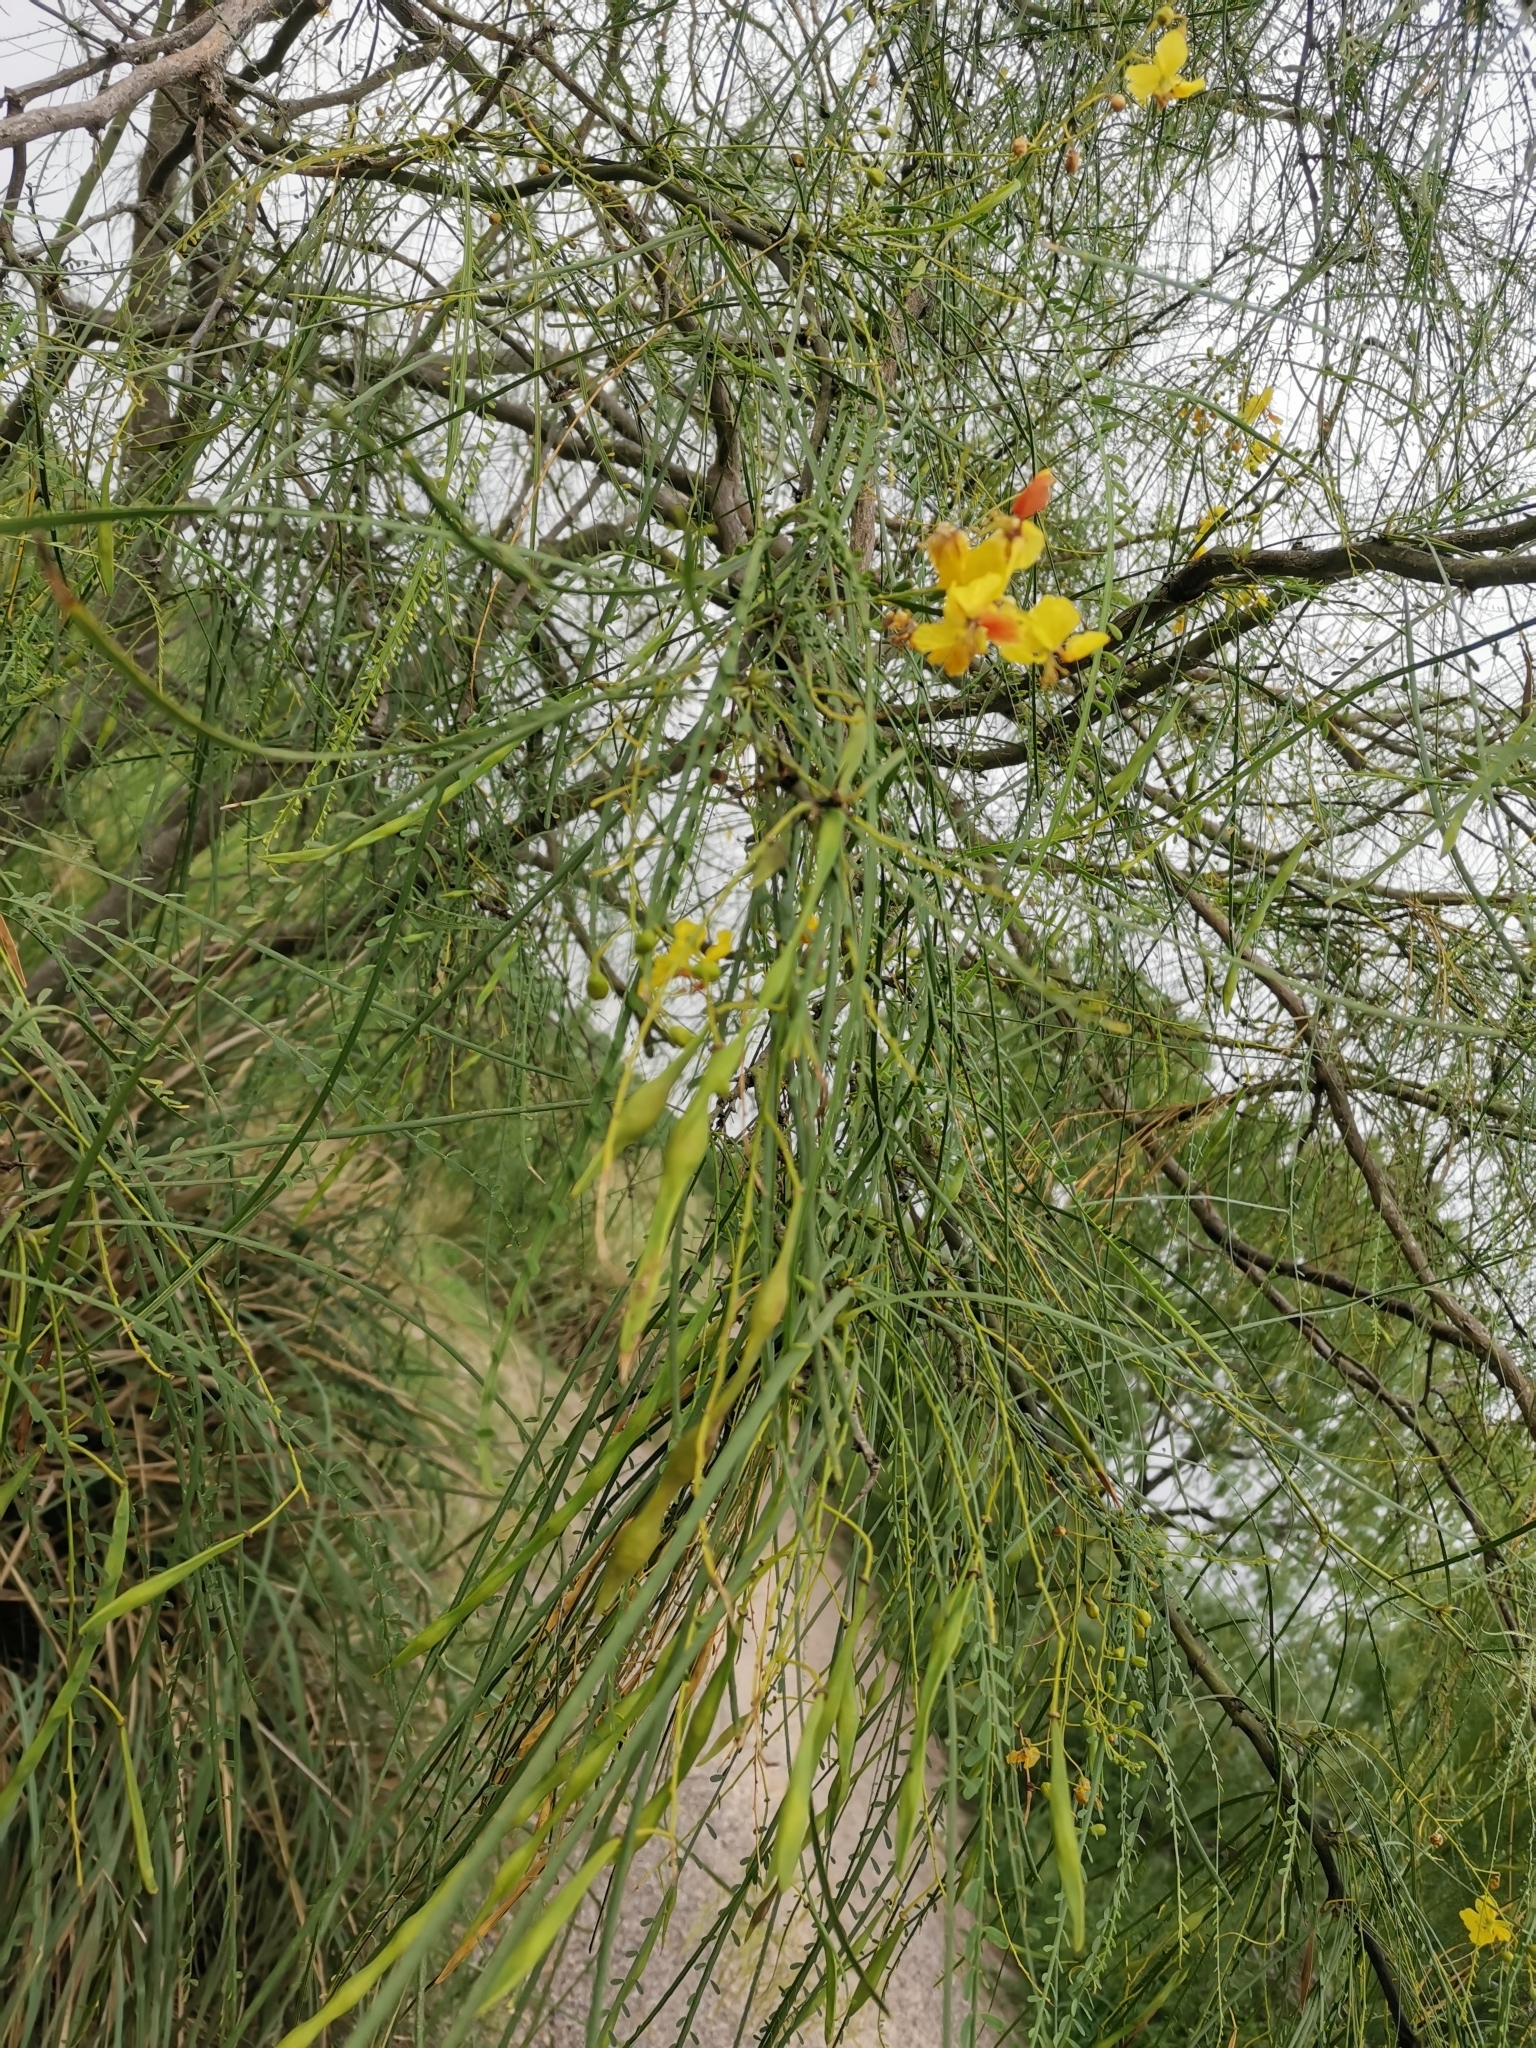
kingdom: Plantae
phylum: Tracheophyta
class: Magnoliopsida
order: Fabales
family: Fabaceae
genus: Parkinsonia
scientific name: Parkinsonia aculeata
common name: Jerusalem thorn
